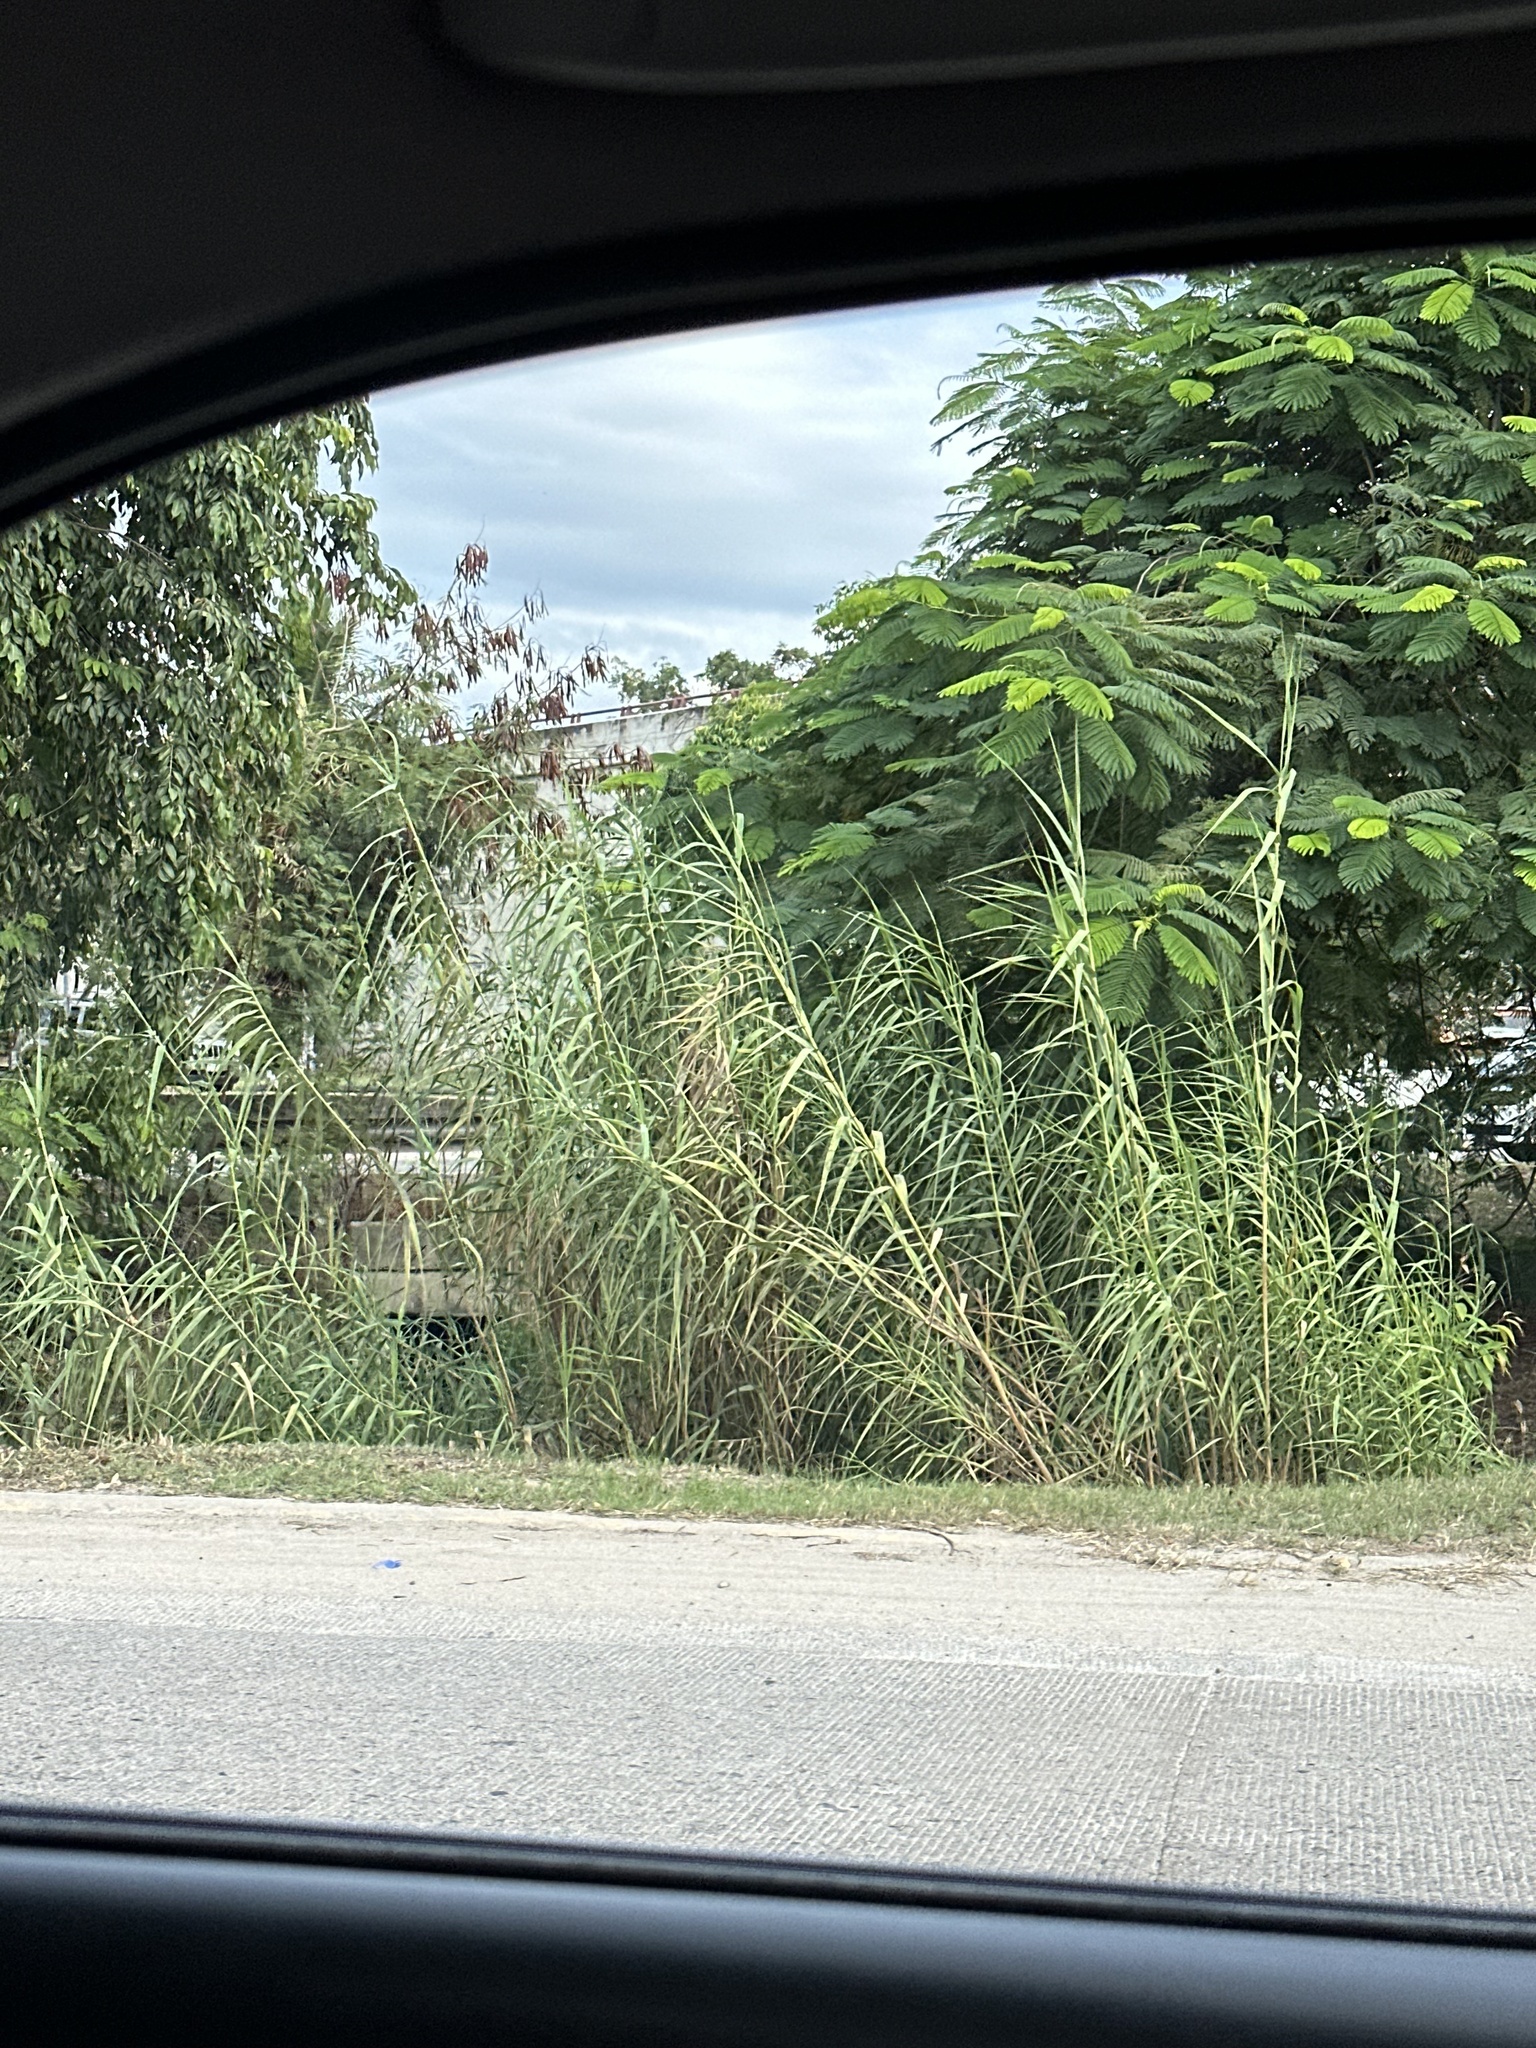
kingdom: Plantae
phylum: Tracheophyta
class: Liliopsida
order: Poales
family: Poaceae
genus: Arundo
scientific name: Arundo donax
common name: Giant reed
